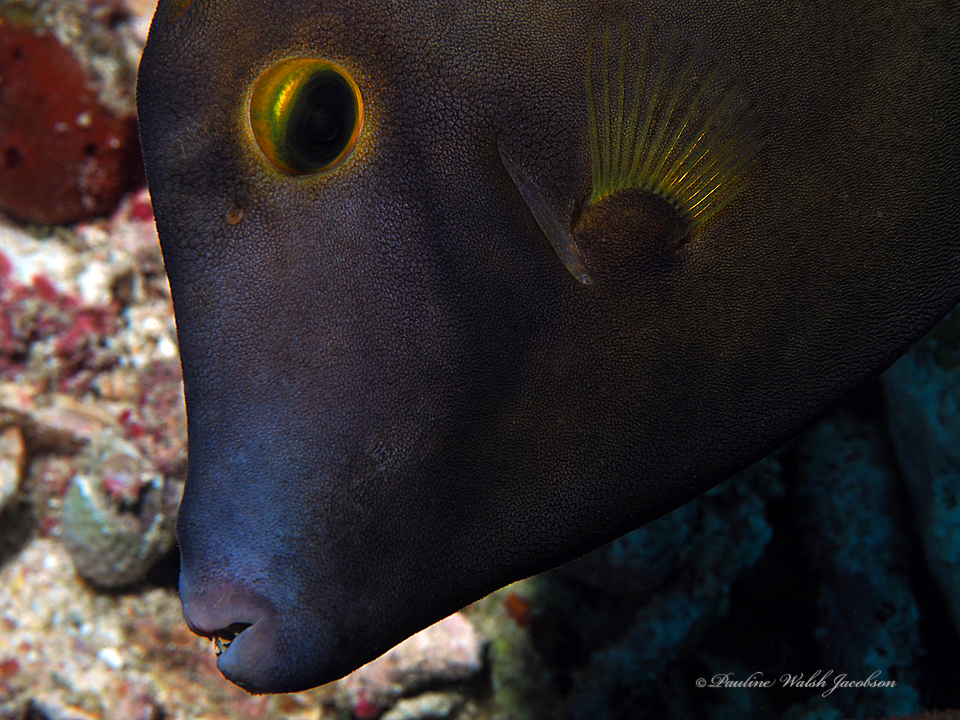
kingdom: Animalia
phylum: Chordata
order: Tetraodontiformes
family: Monacanthidae
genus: Cantherhines
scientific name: Cantherhines macrocerus
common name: Whitespotted filefish
